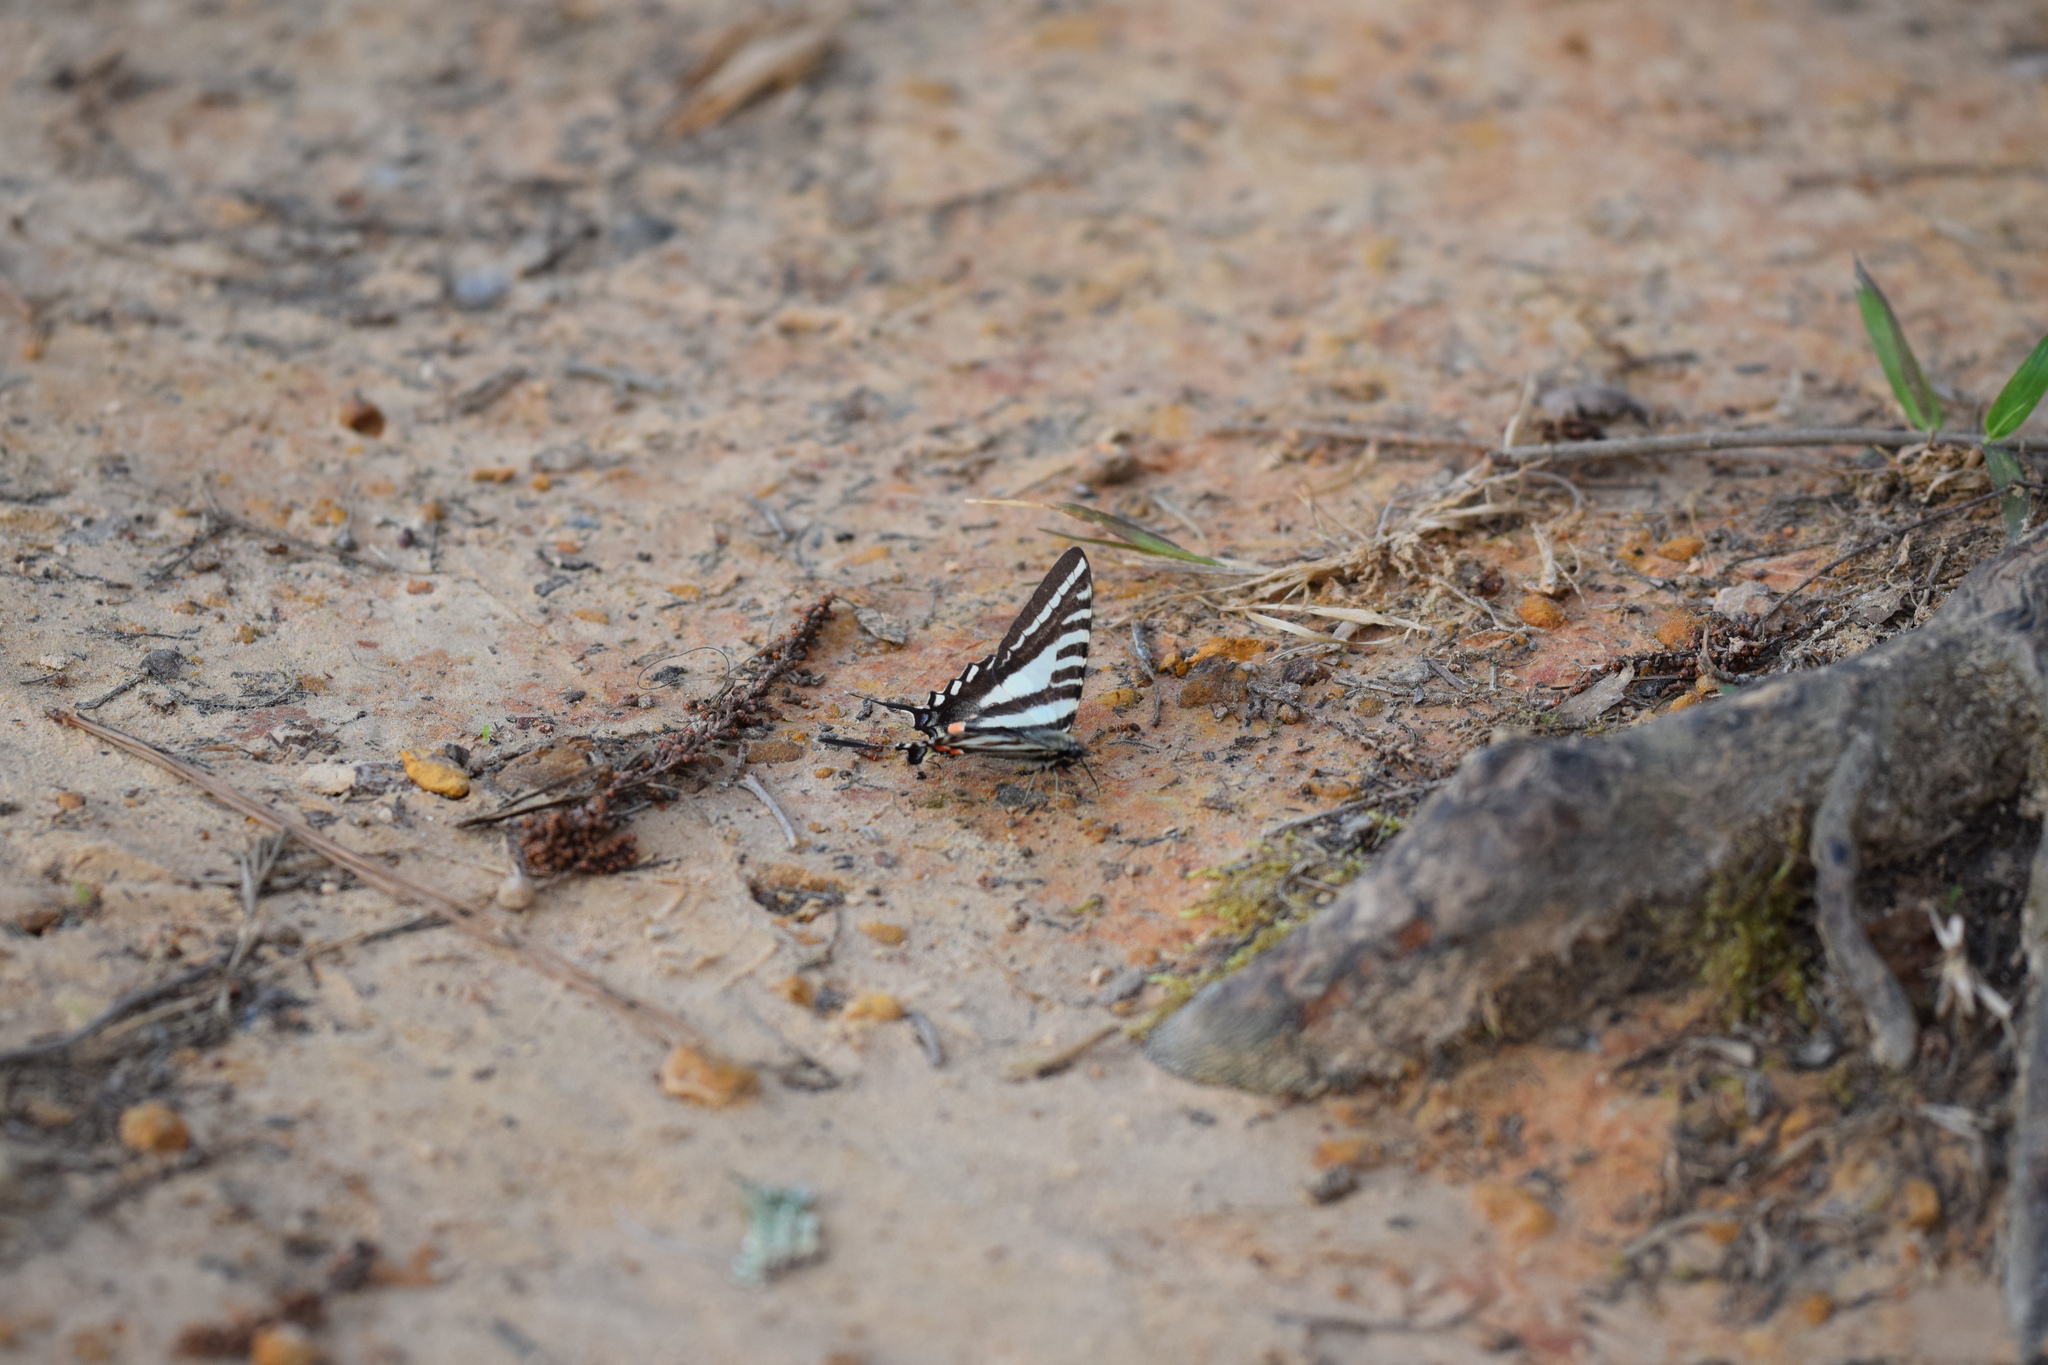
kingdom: Animalia
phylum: Arthropoda
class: Insecta
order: Lepidoptera
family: Papilionidae
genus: Protographium
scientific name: Protographium marcellus
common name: Zebra swallowtail
